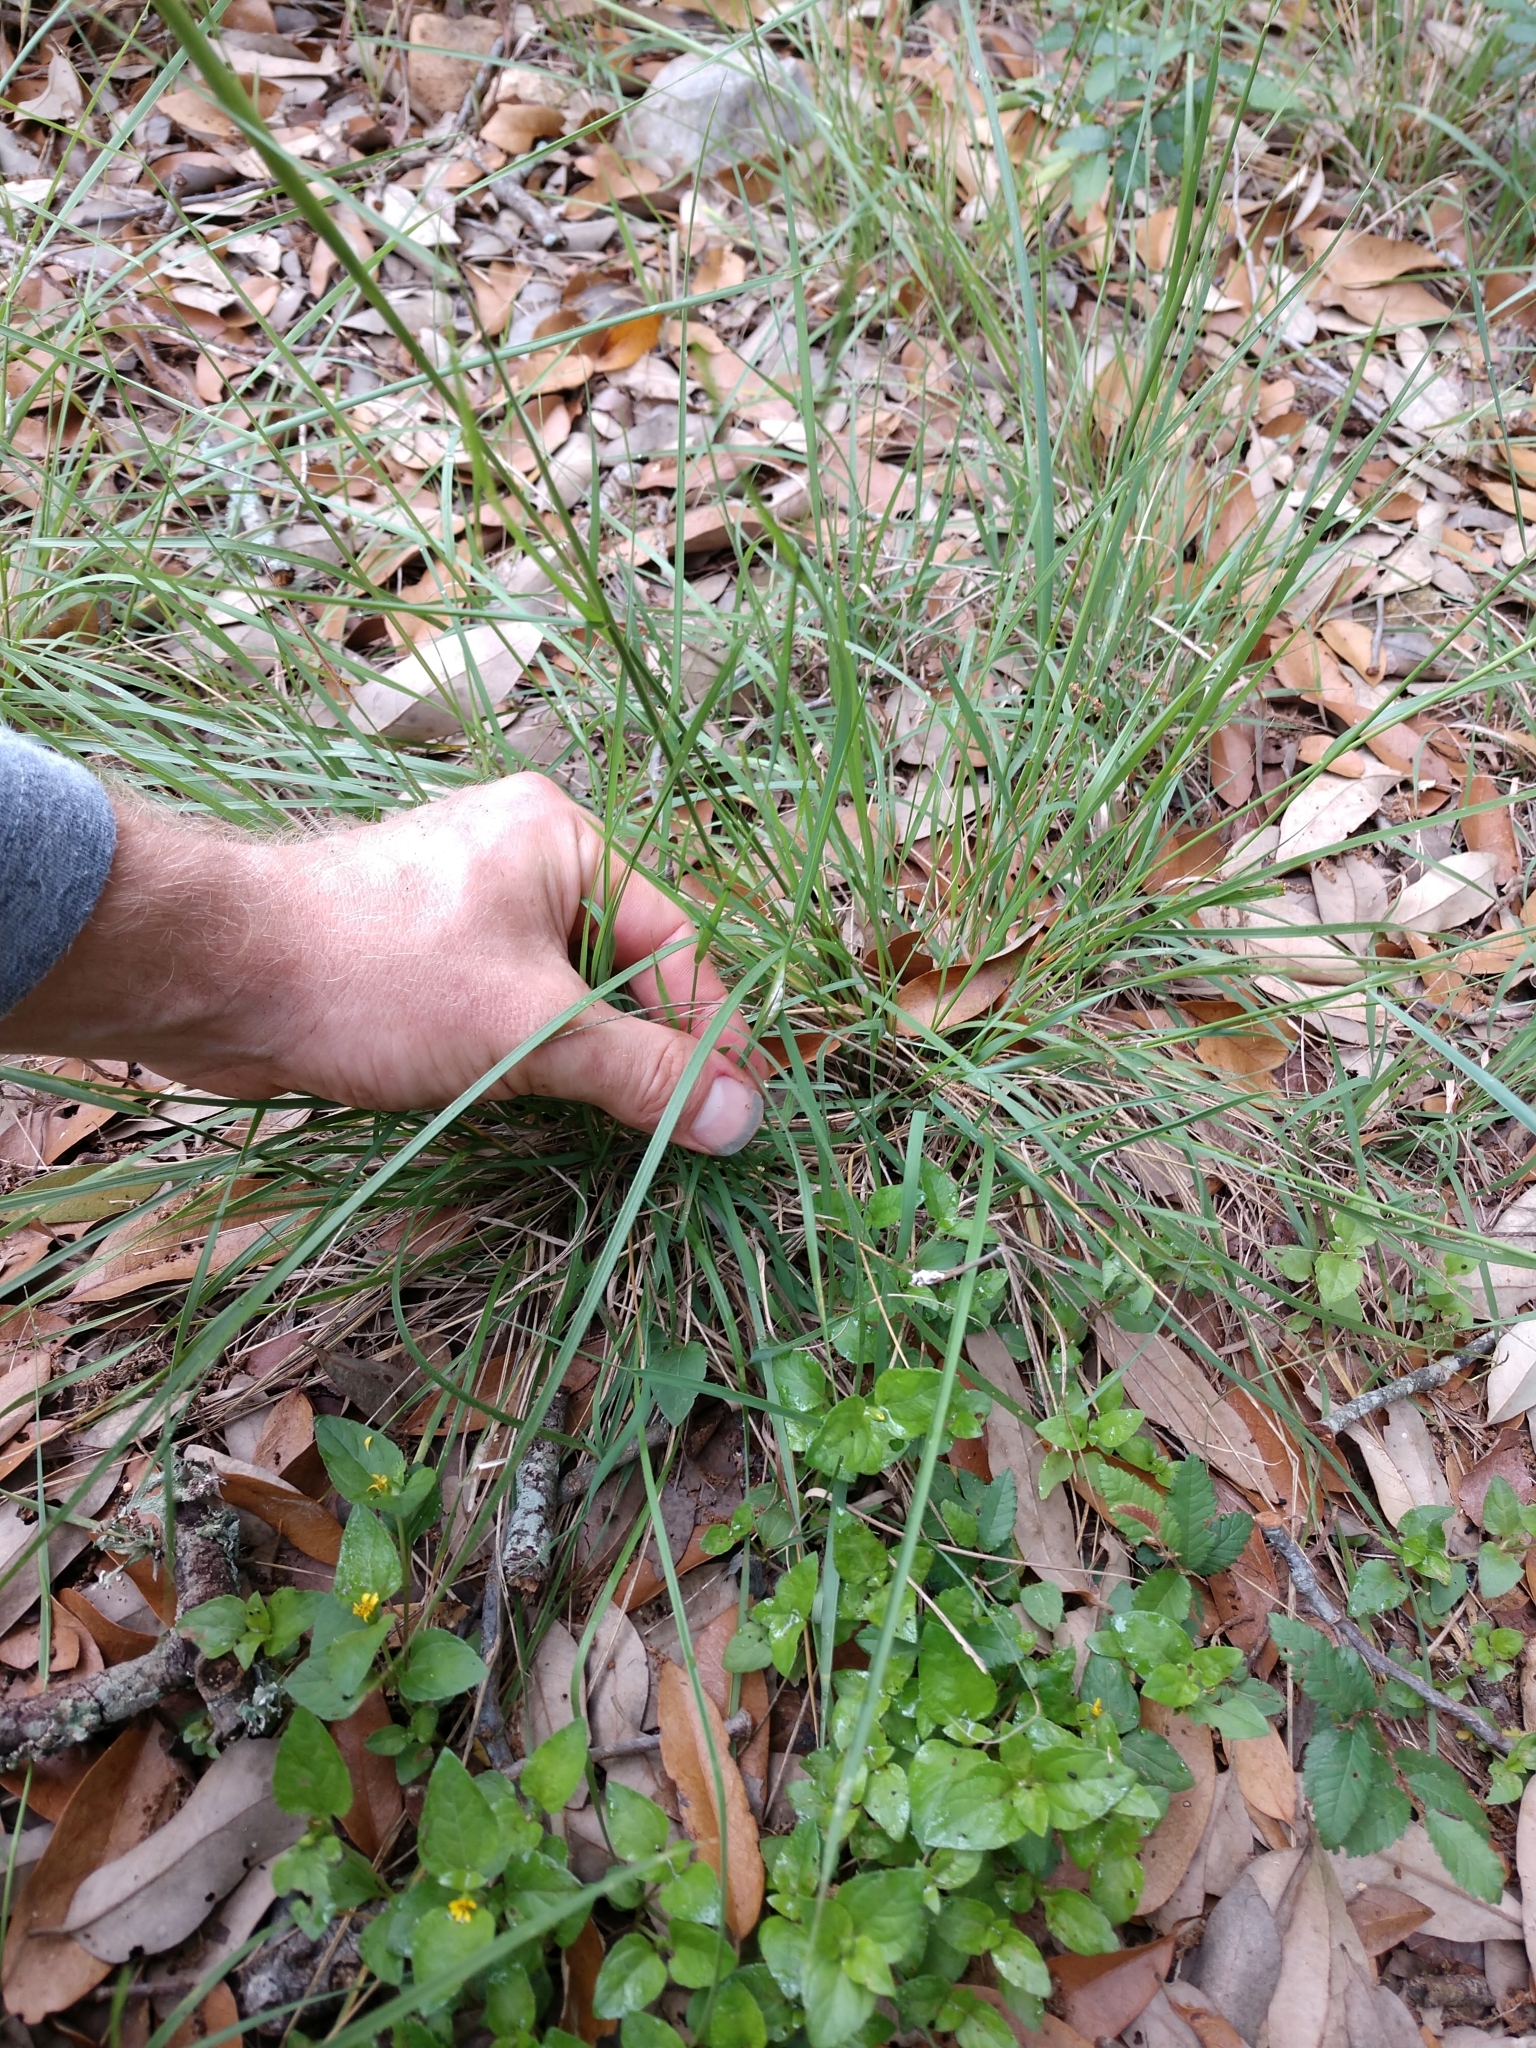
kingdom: Plantae
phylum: Tracheophyta
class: Liliopsida
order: Poales
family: Poaceae
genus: Nassella
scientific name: Nassella leucotricha
